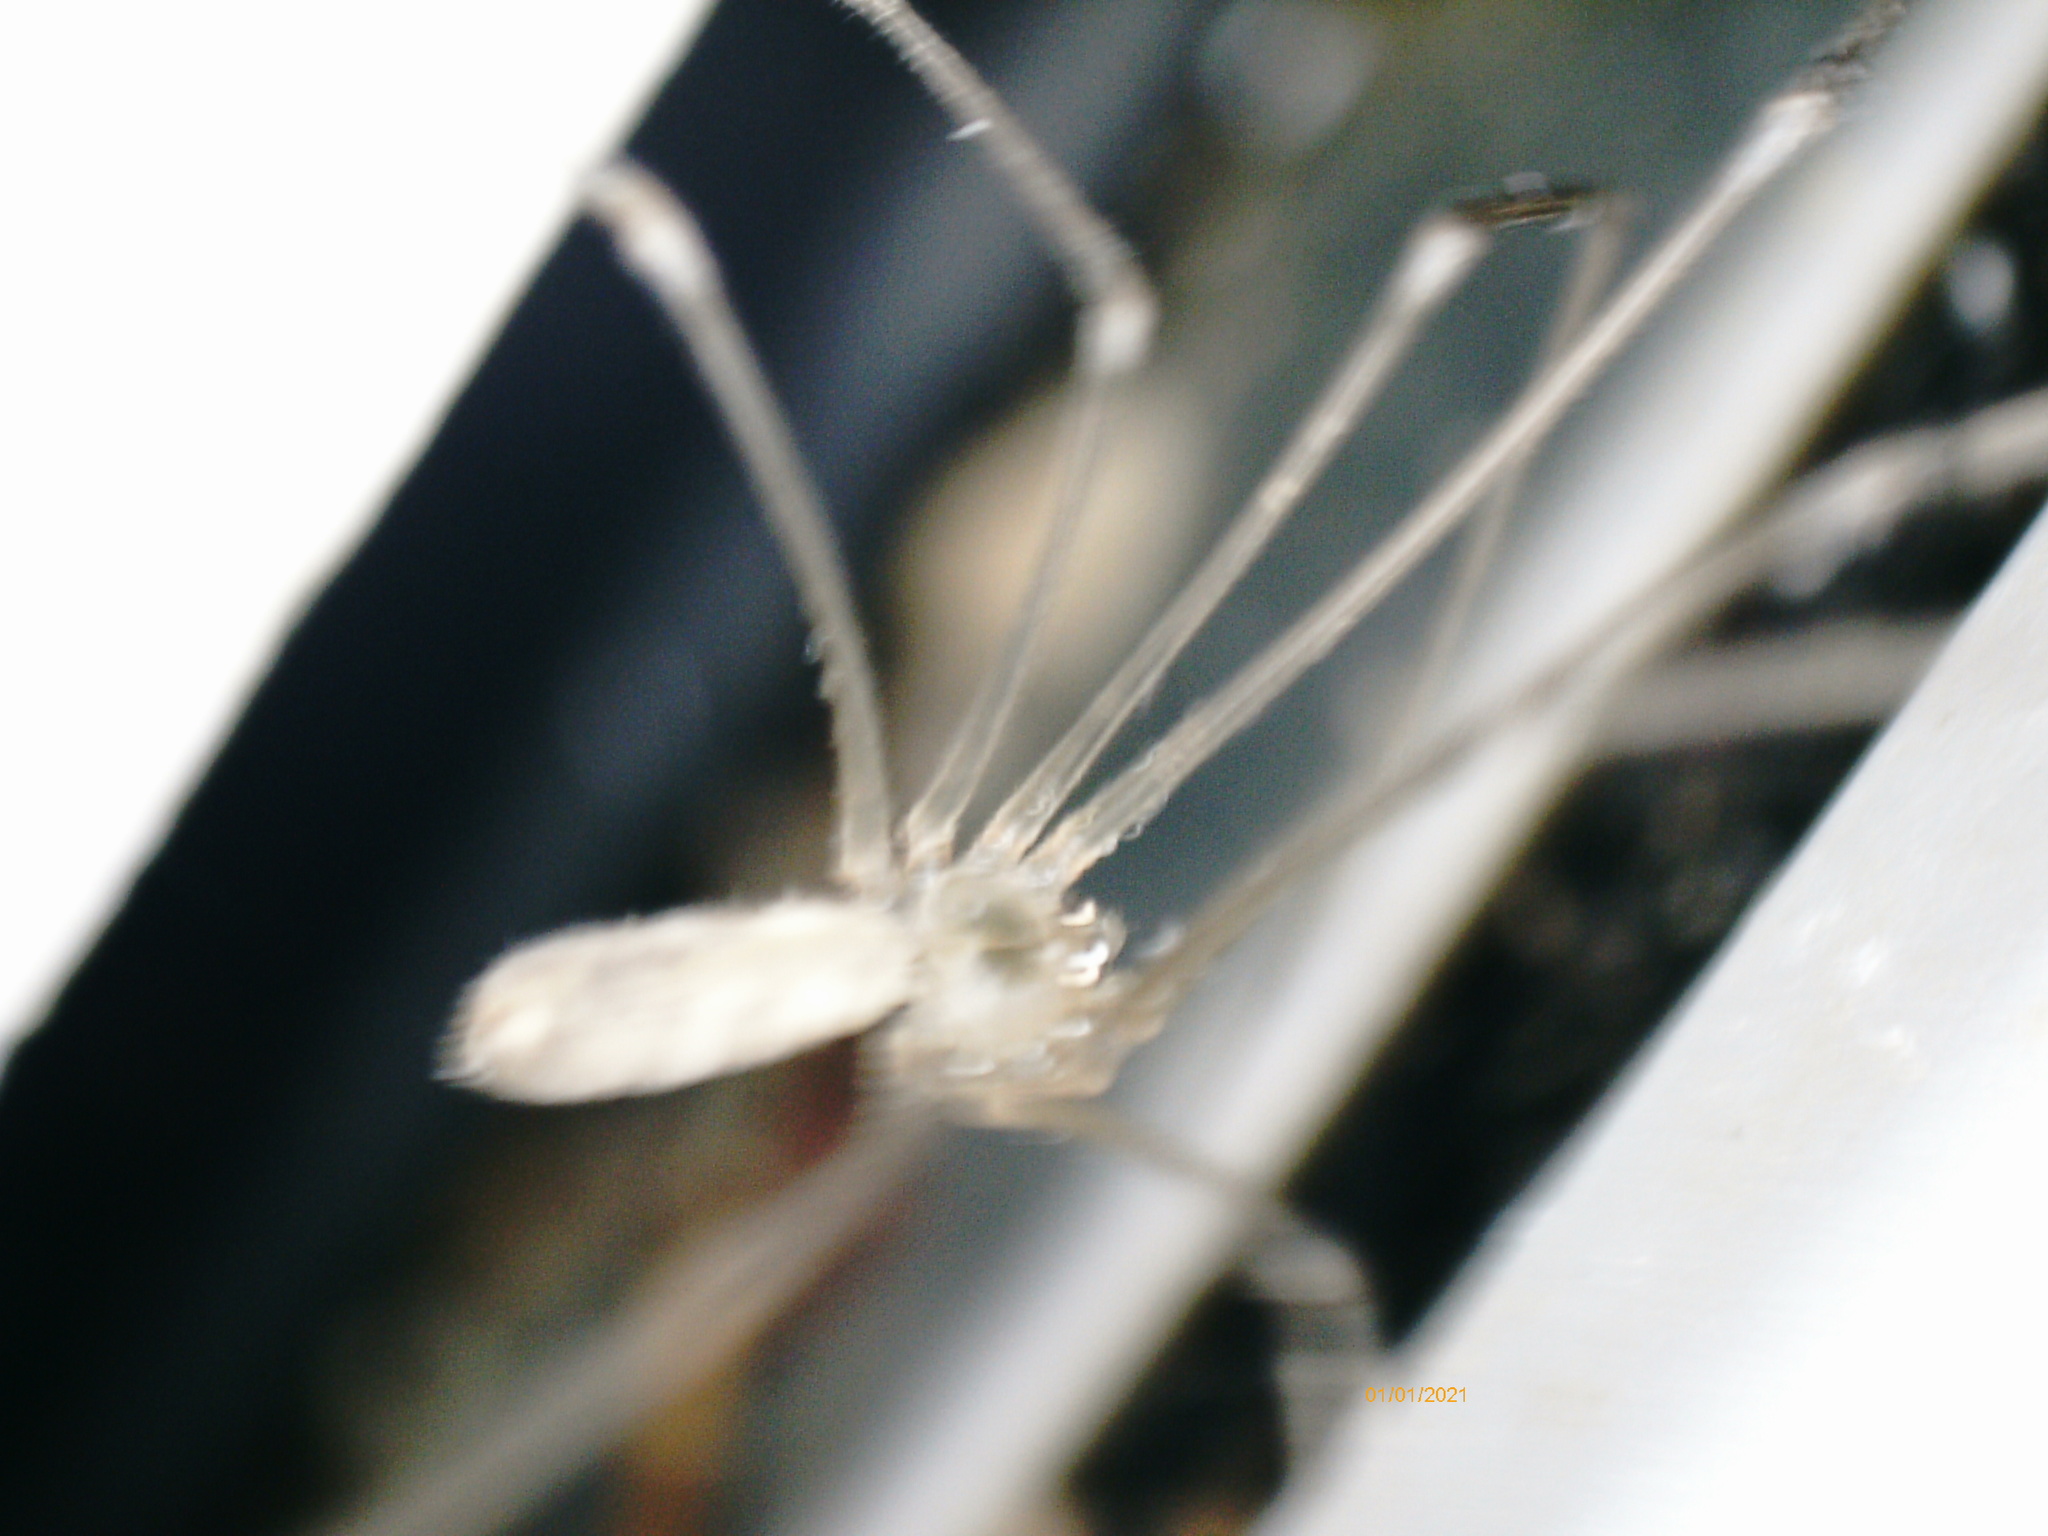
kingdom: Animalia
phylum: Arthropoda
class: Arachnida
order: Araneae
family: Pholcidae
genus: Pholcus
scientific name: Pholcus phalangioides
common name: Longbodied cellar spider
